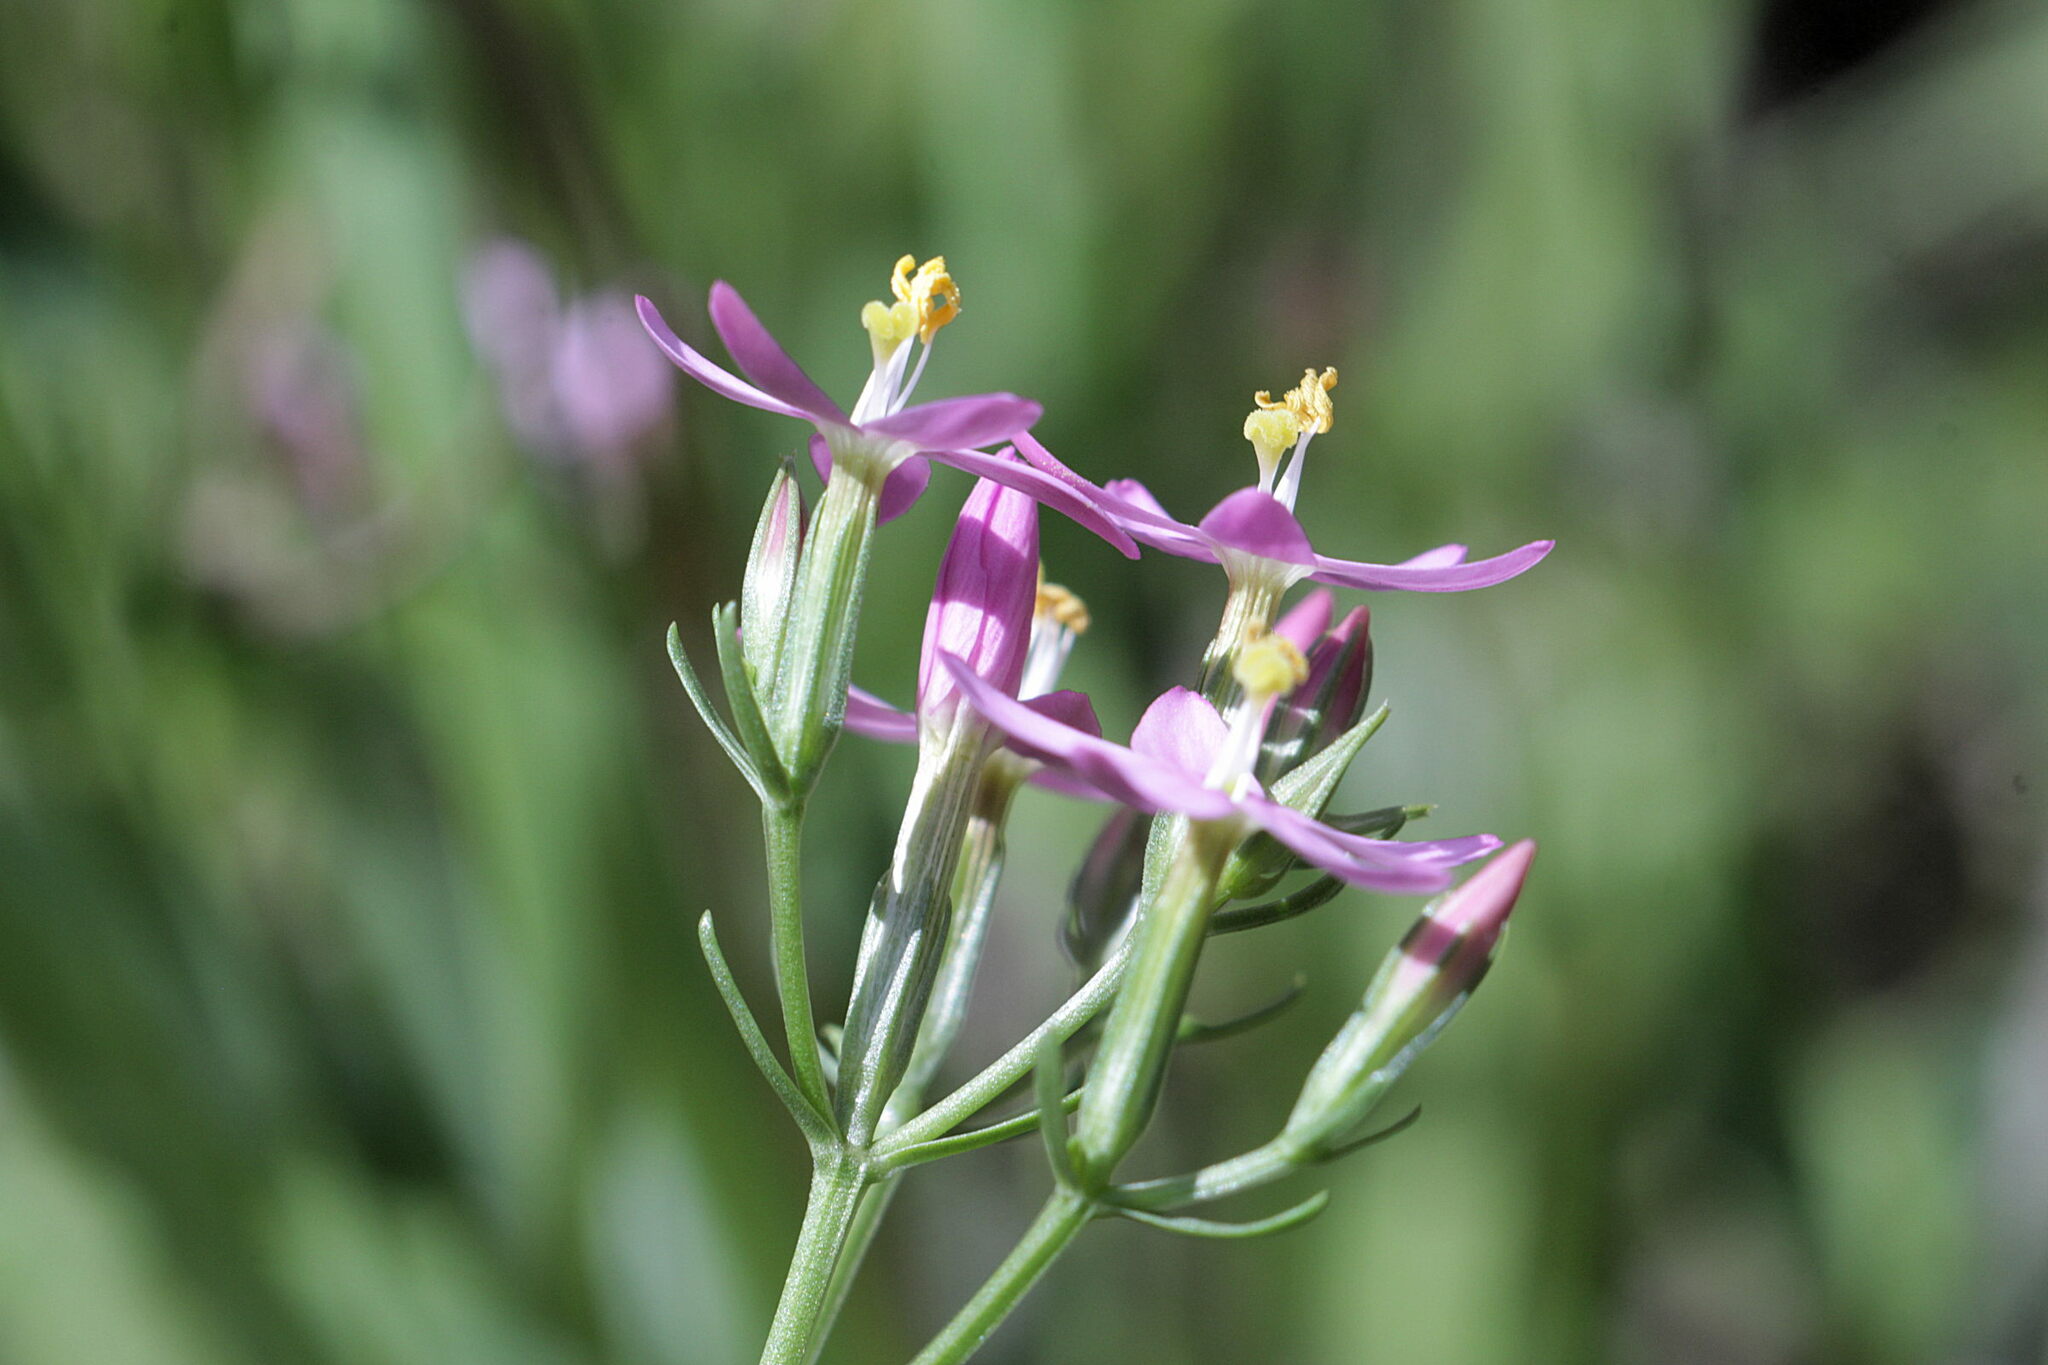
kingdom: Plantae
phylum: Tracheophyta
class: Magnoliopsida
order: Gentianales
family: Gentianaceae
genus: Centaurium
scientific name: Centaurium erythraea
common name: Common centaury
